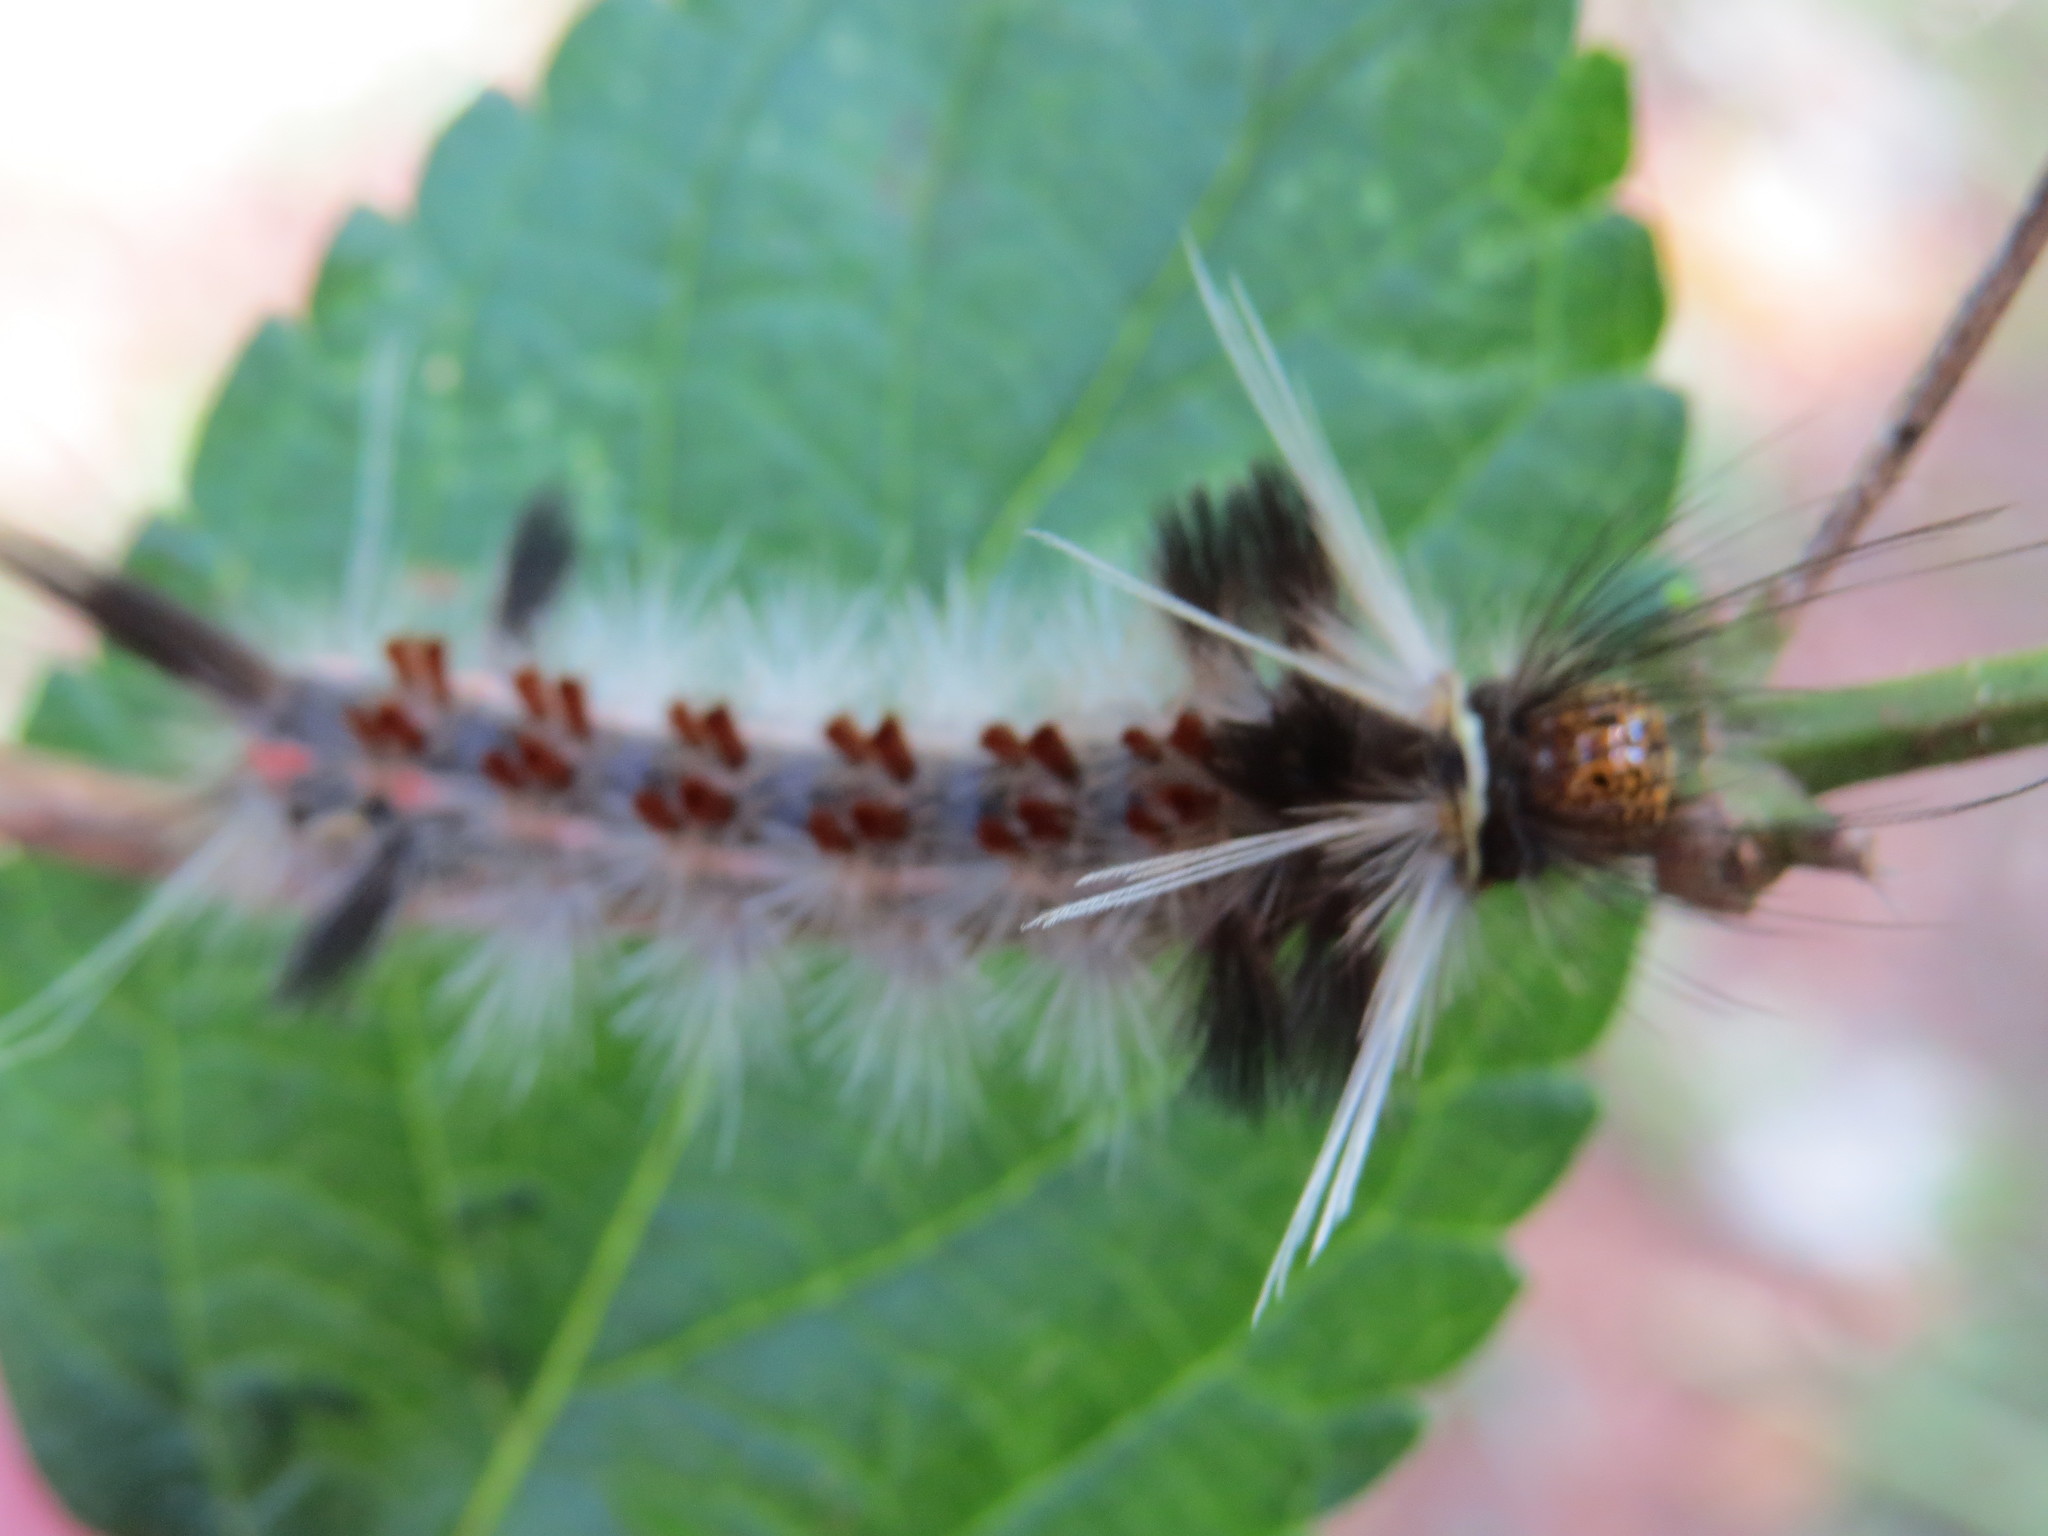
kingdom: Animalia
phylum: Arthropoda
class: Insecta
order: Lepidoptera
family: Erebidae
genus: Carales
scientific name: Carales astur
